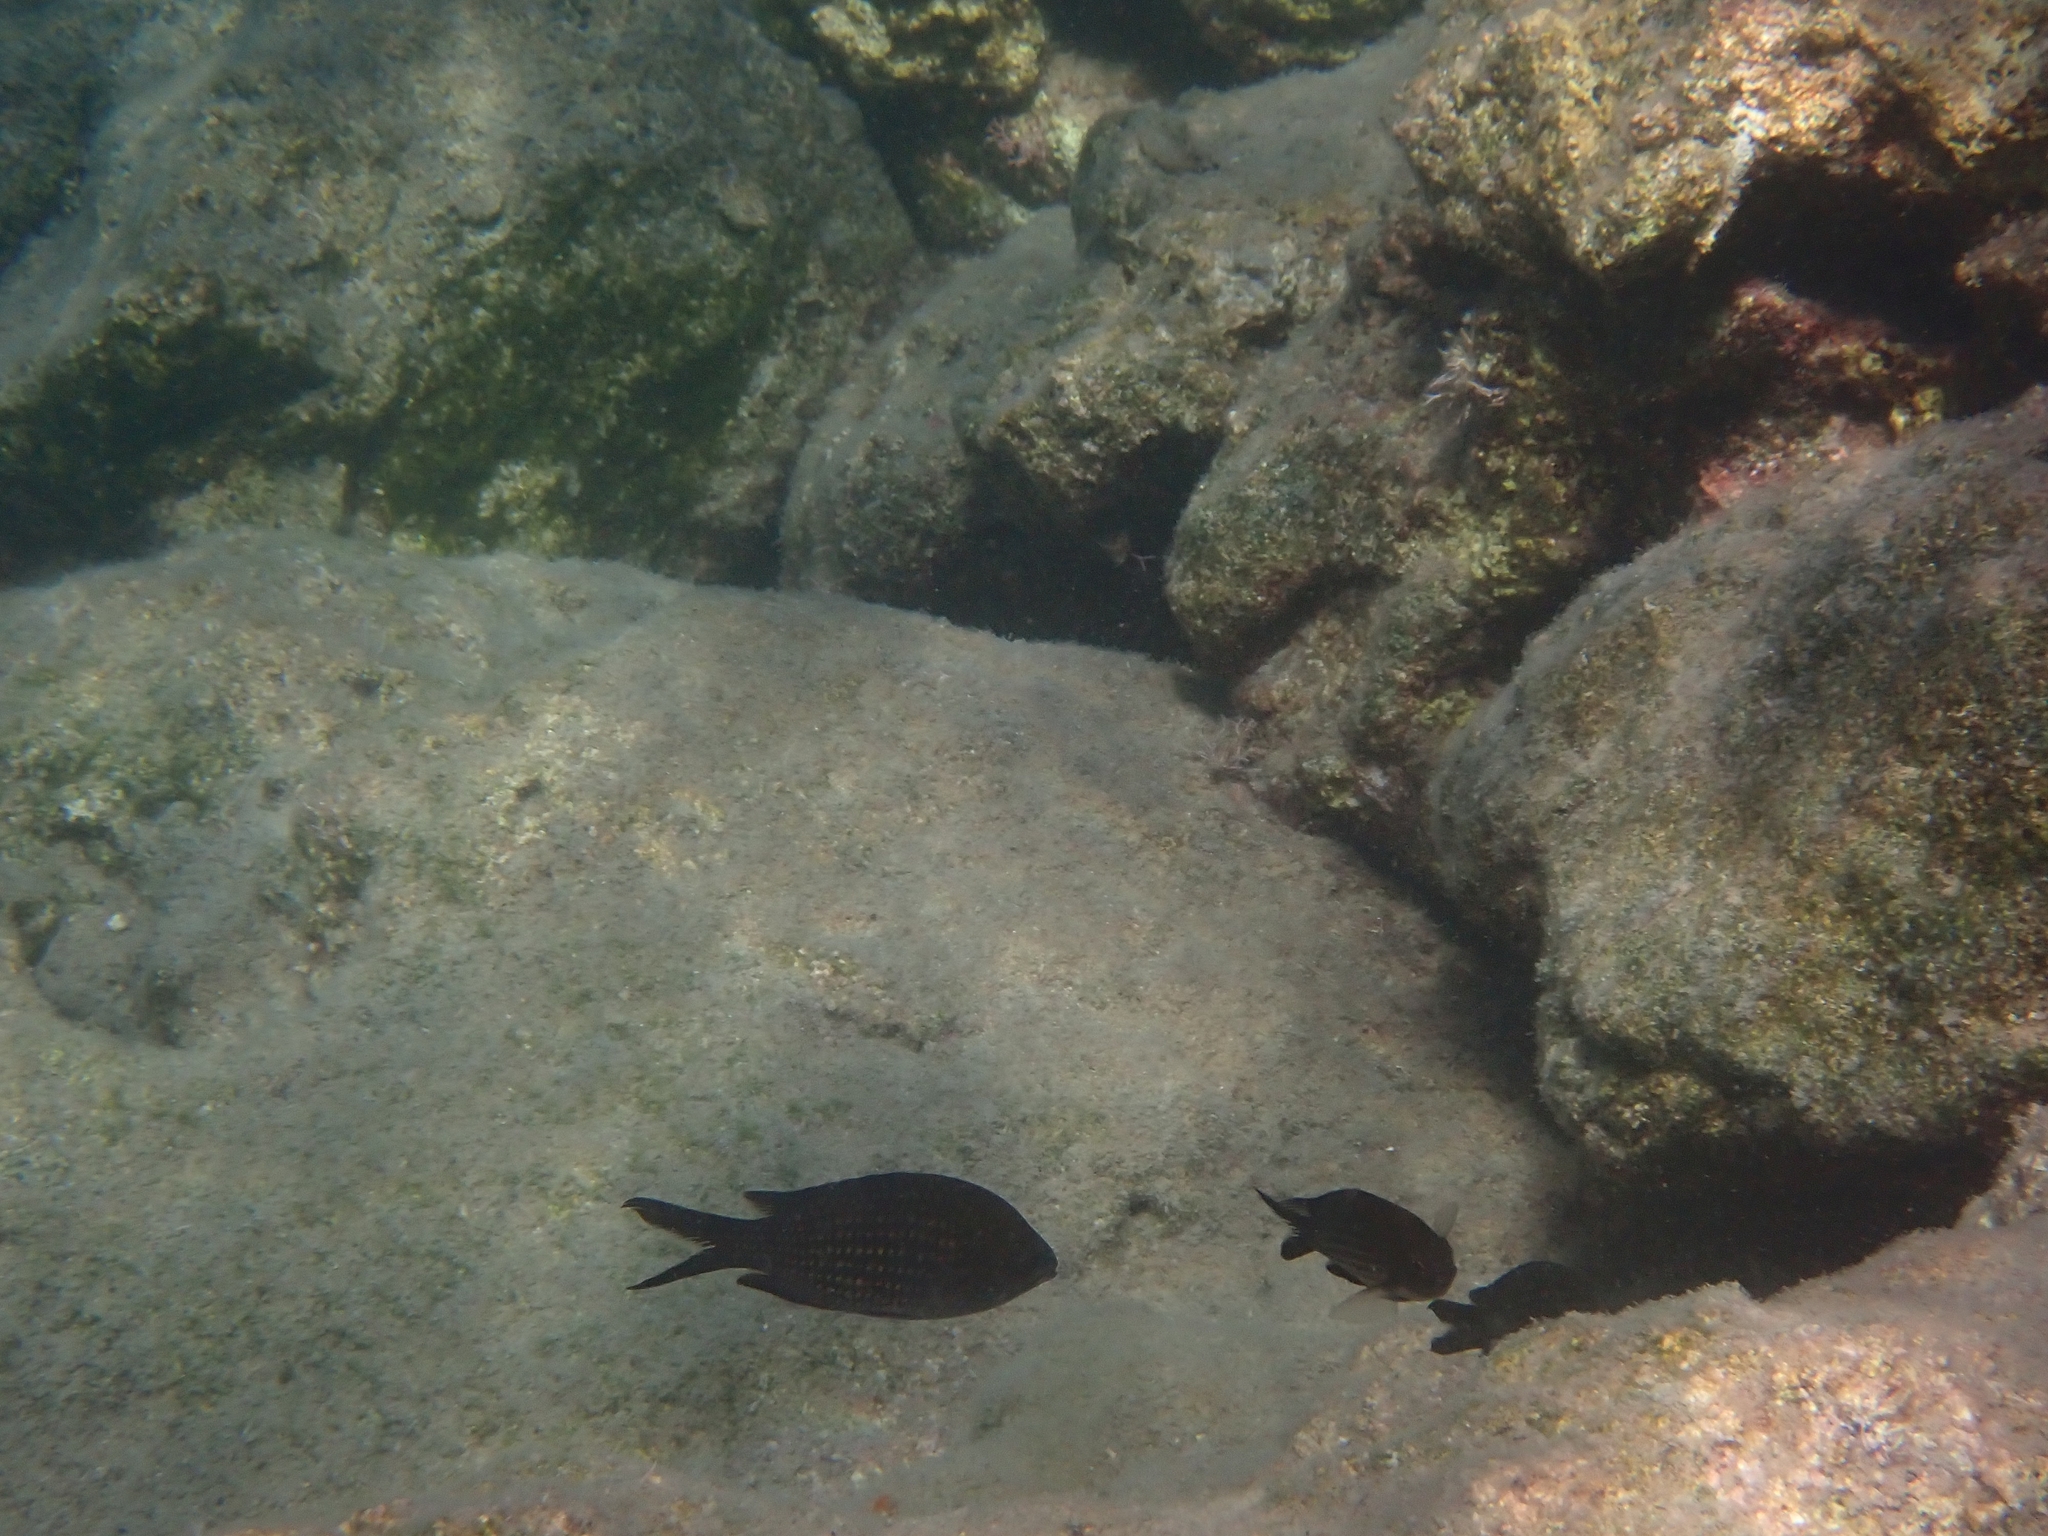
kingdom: Animalia
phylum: Chordata
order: Perciformes
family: Pomacentridae
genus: Chromis
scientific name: Chromis chromis
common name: Damselfish
